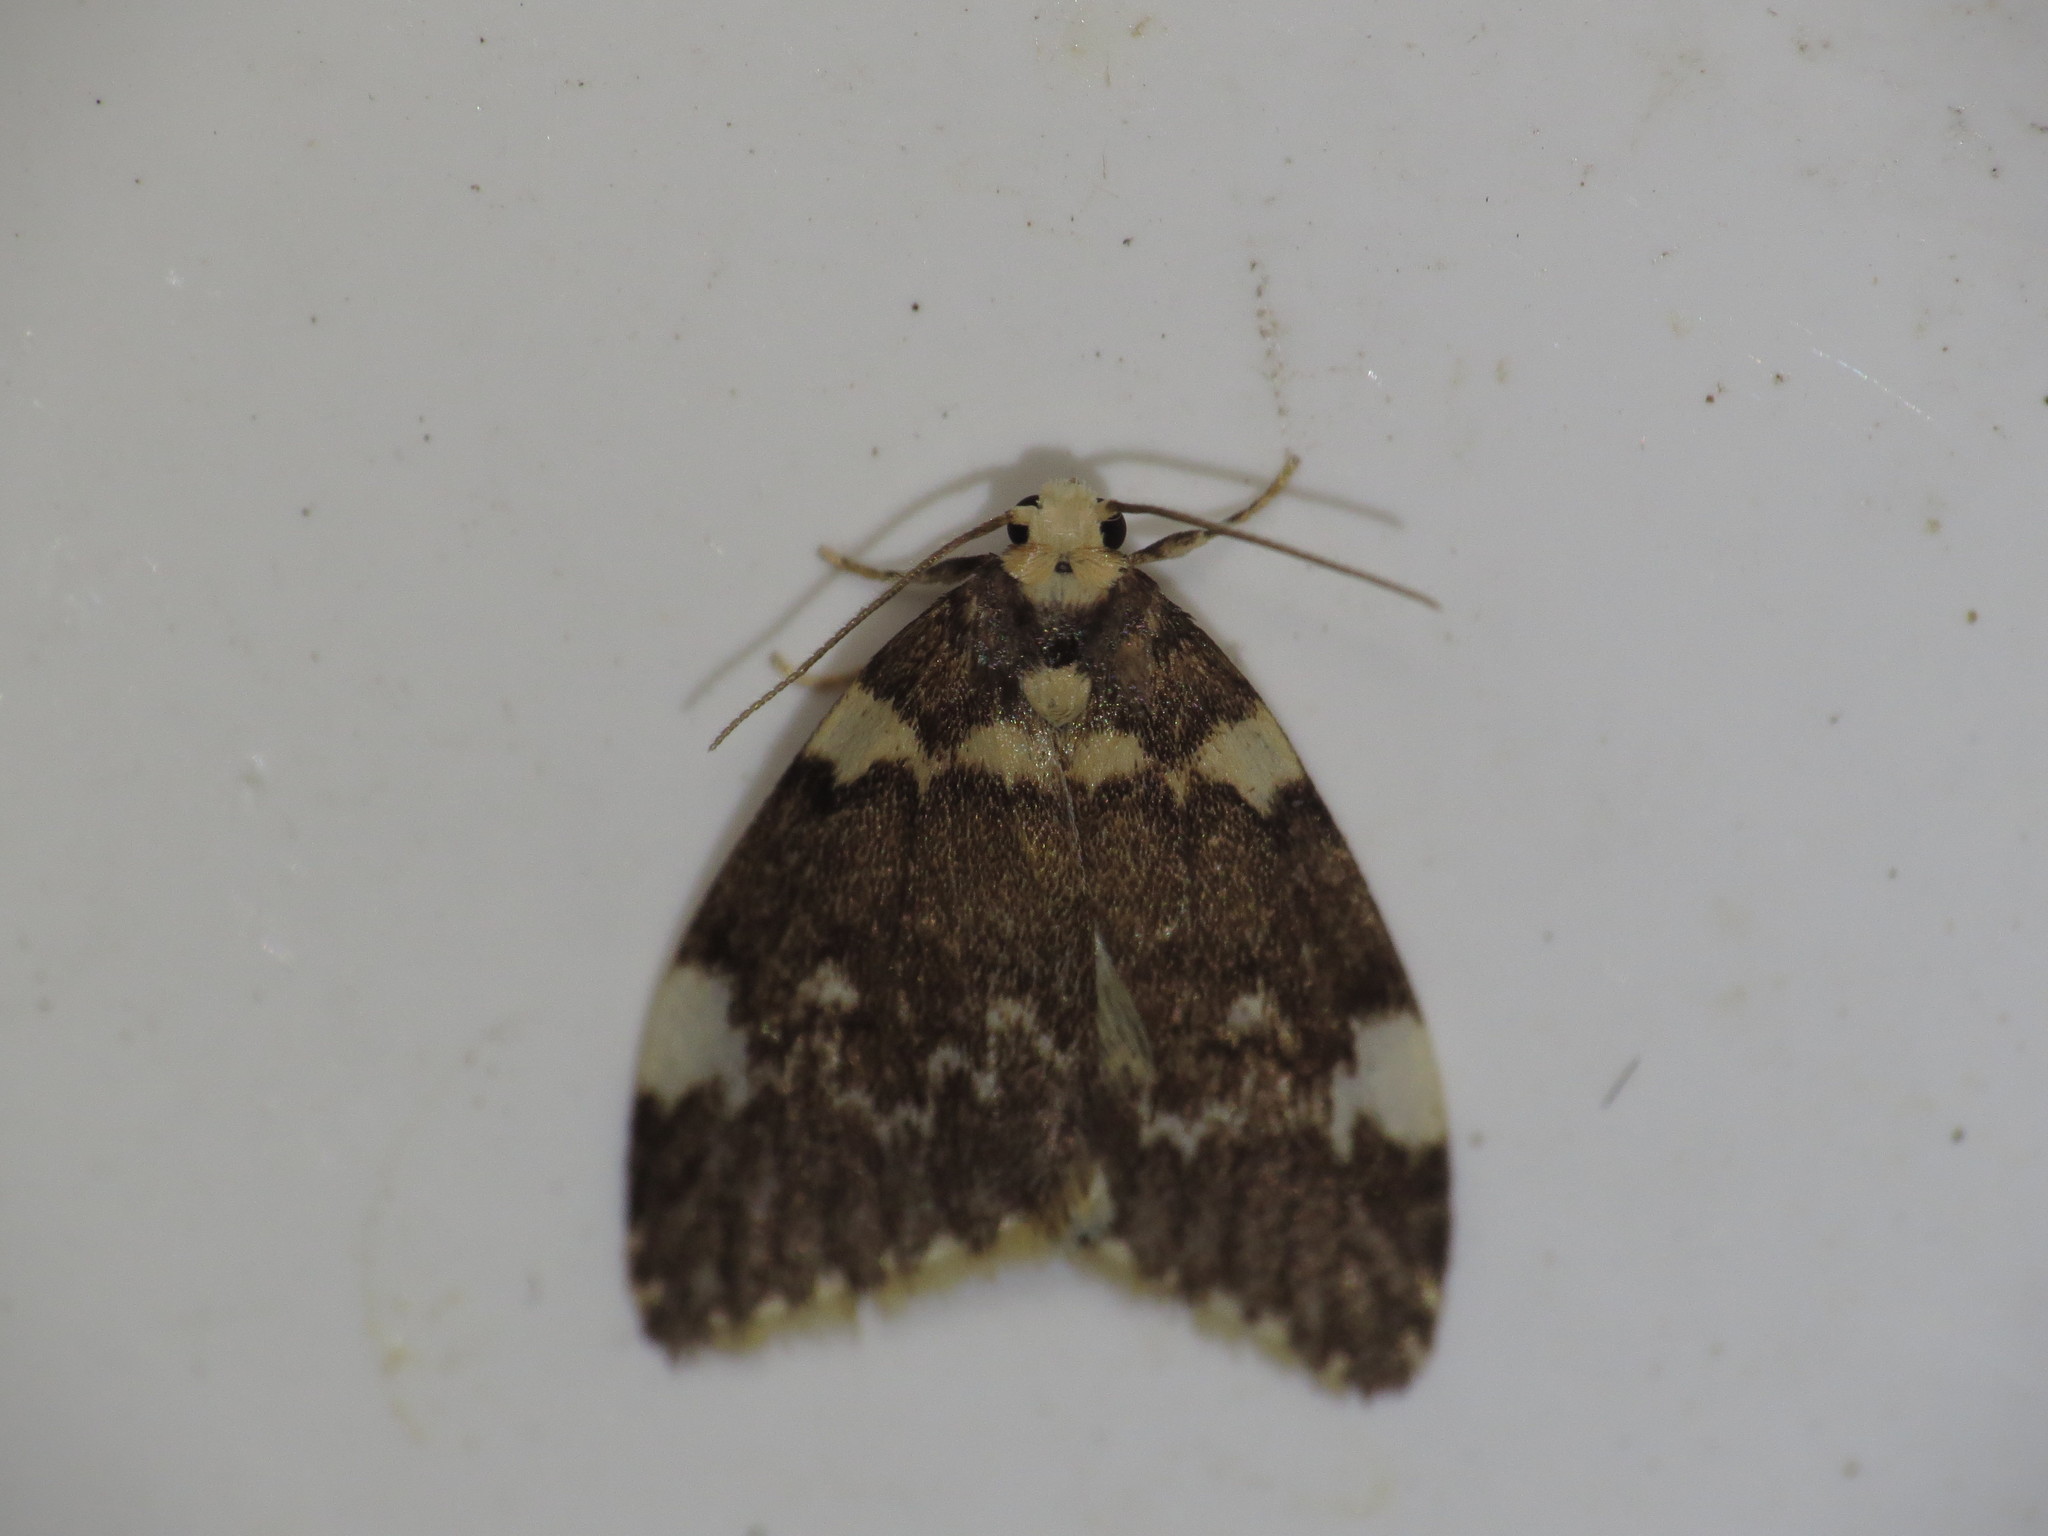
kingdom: Animalia
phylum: Arthropoda
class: Insecta
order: Lepidoptera
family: Erebidae
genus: Halone
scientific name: Halone pteridaula
